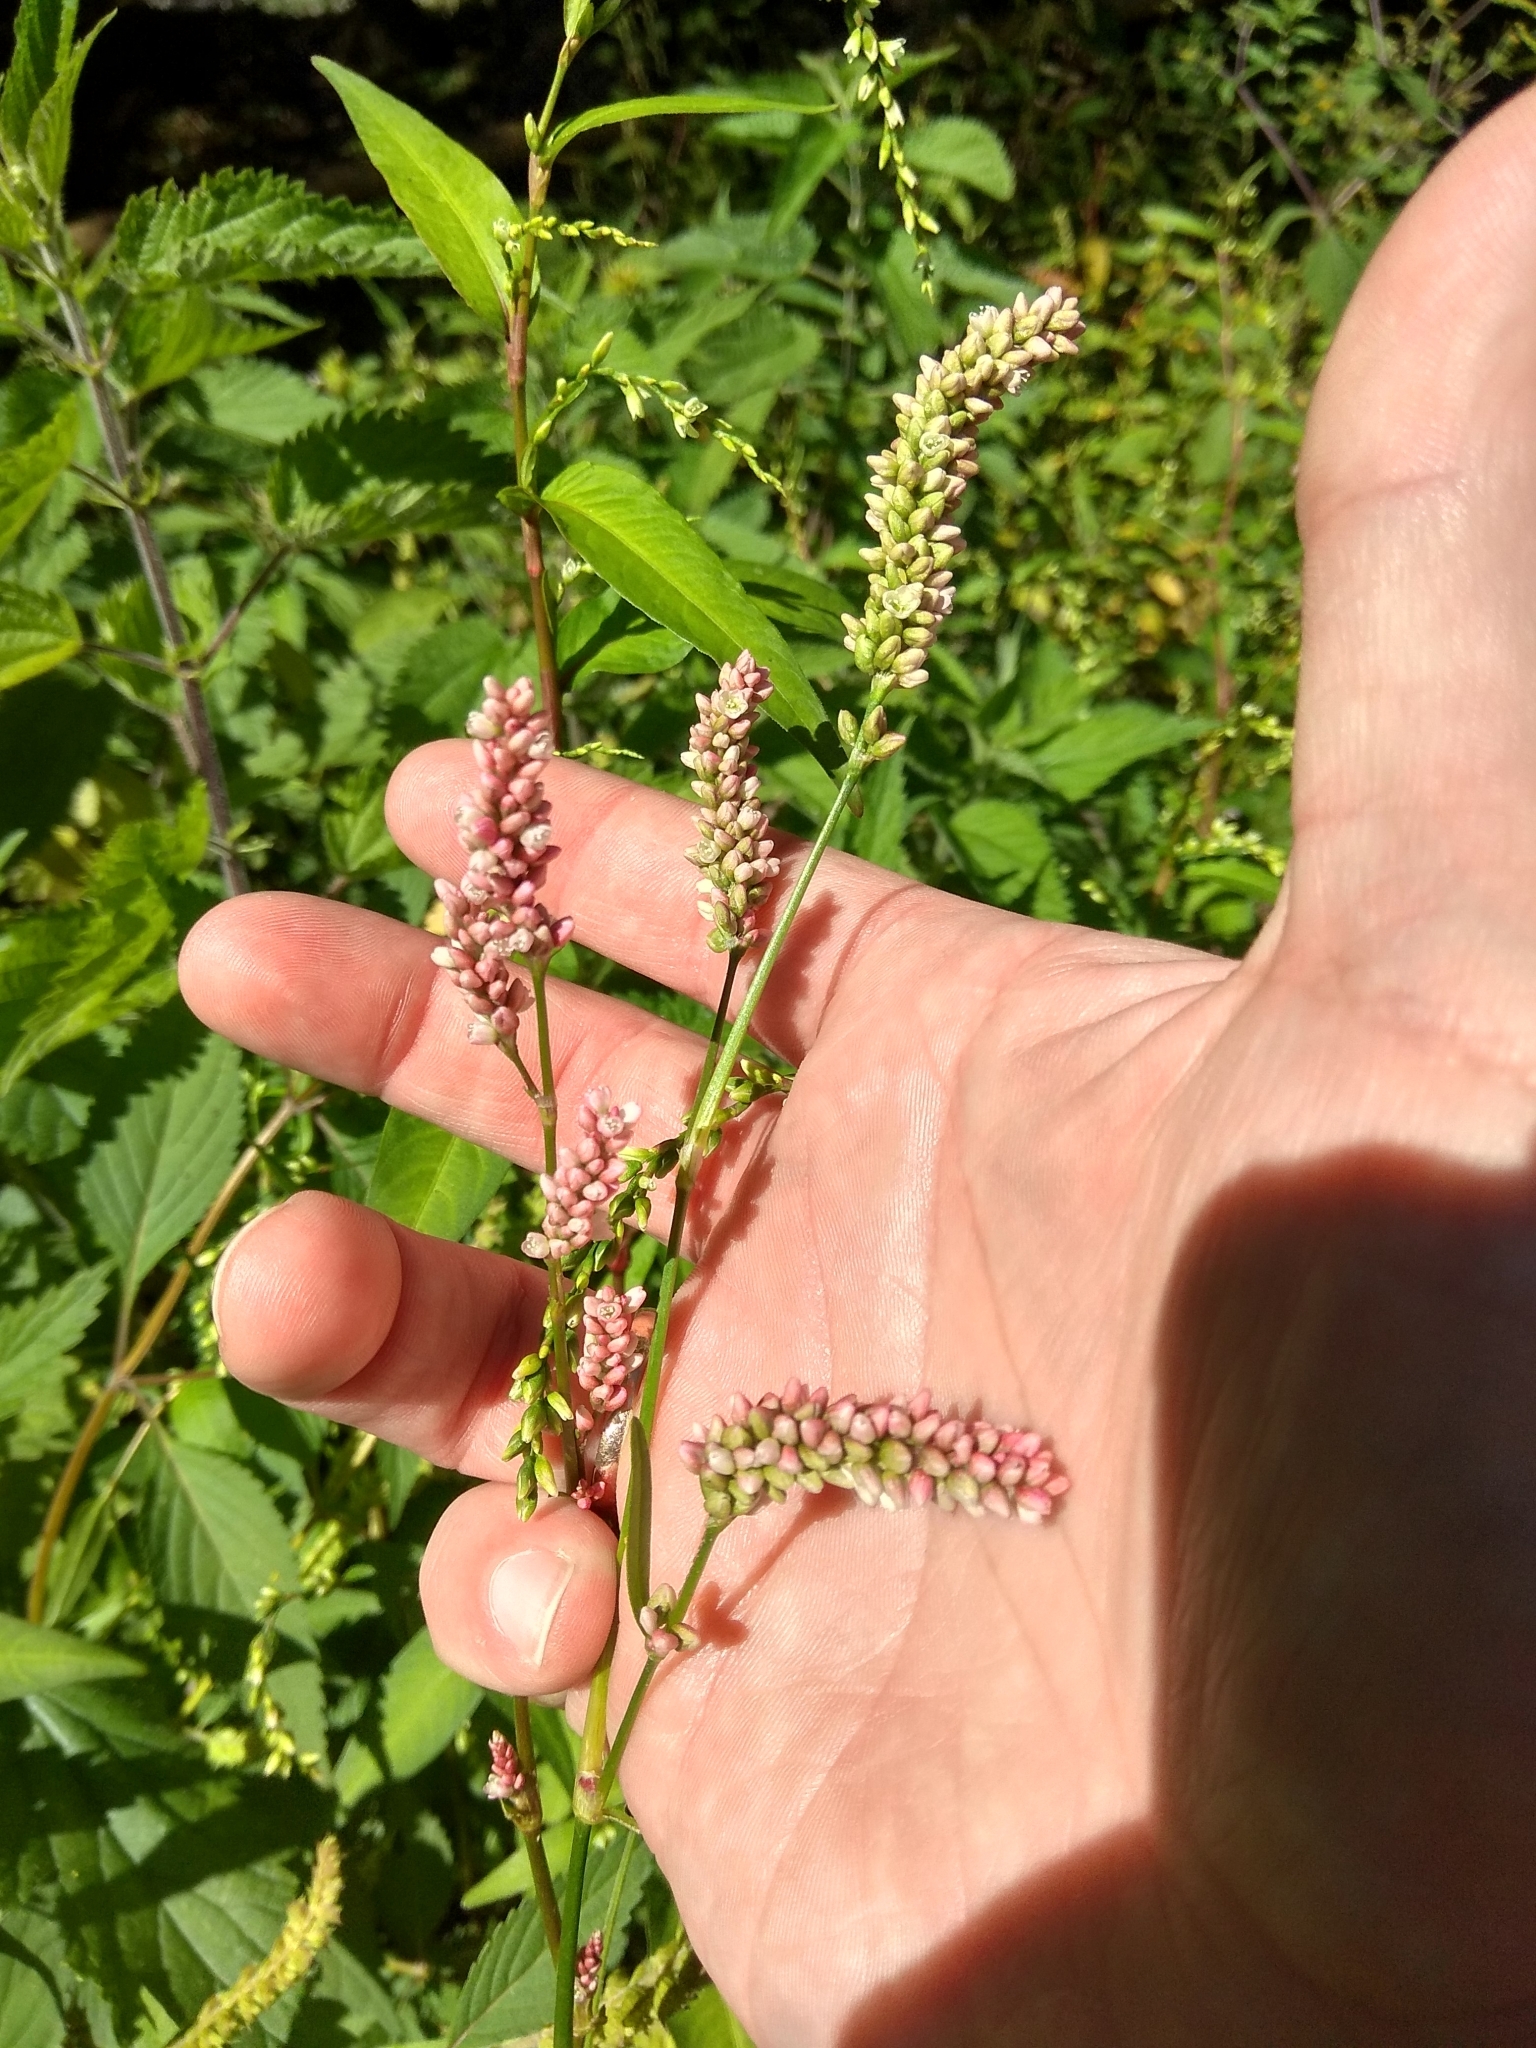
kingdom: Plantae
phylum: Tracheophyta
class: Magnoliopsida
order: Caryophyllales
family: Polygonaceae
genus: Persicaria
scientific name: Persicaria maculosa
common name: Redshank
